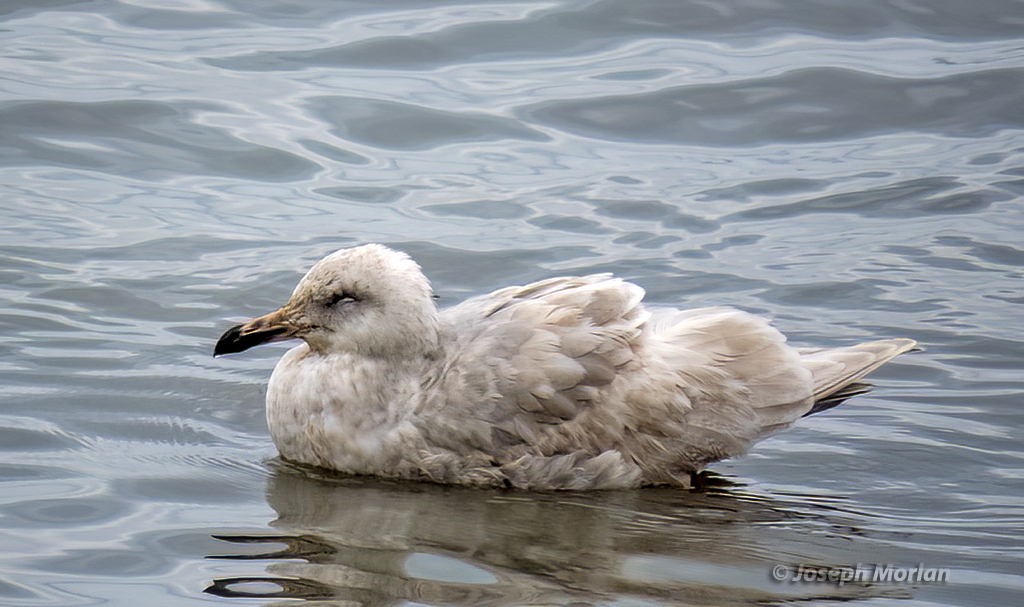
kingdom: Animalia
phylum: Chordata
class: Aves
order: Charadriiformes
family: Laridae
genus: Larus
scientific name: Larus glaucescens
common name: Glaucous-winged gull
